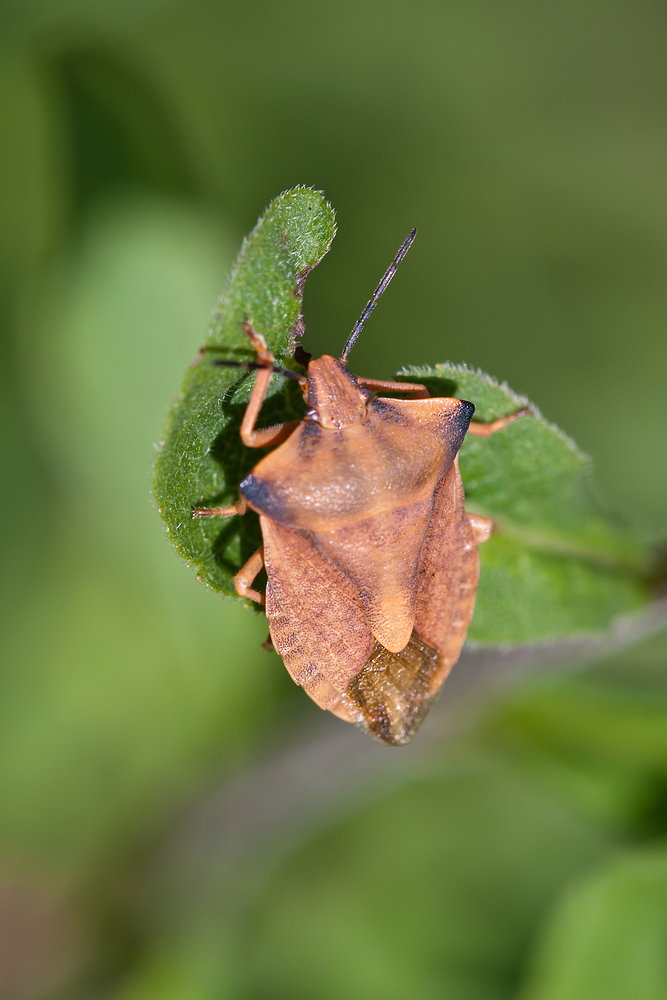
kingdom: Animalia
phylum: Arthropoda
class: Insecta
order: Hemiptera
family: Pentatomidae
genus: Carpocoris
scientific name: Carpocoris fuscispinus
